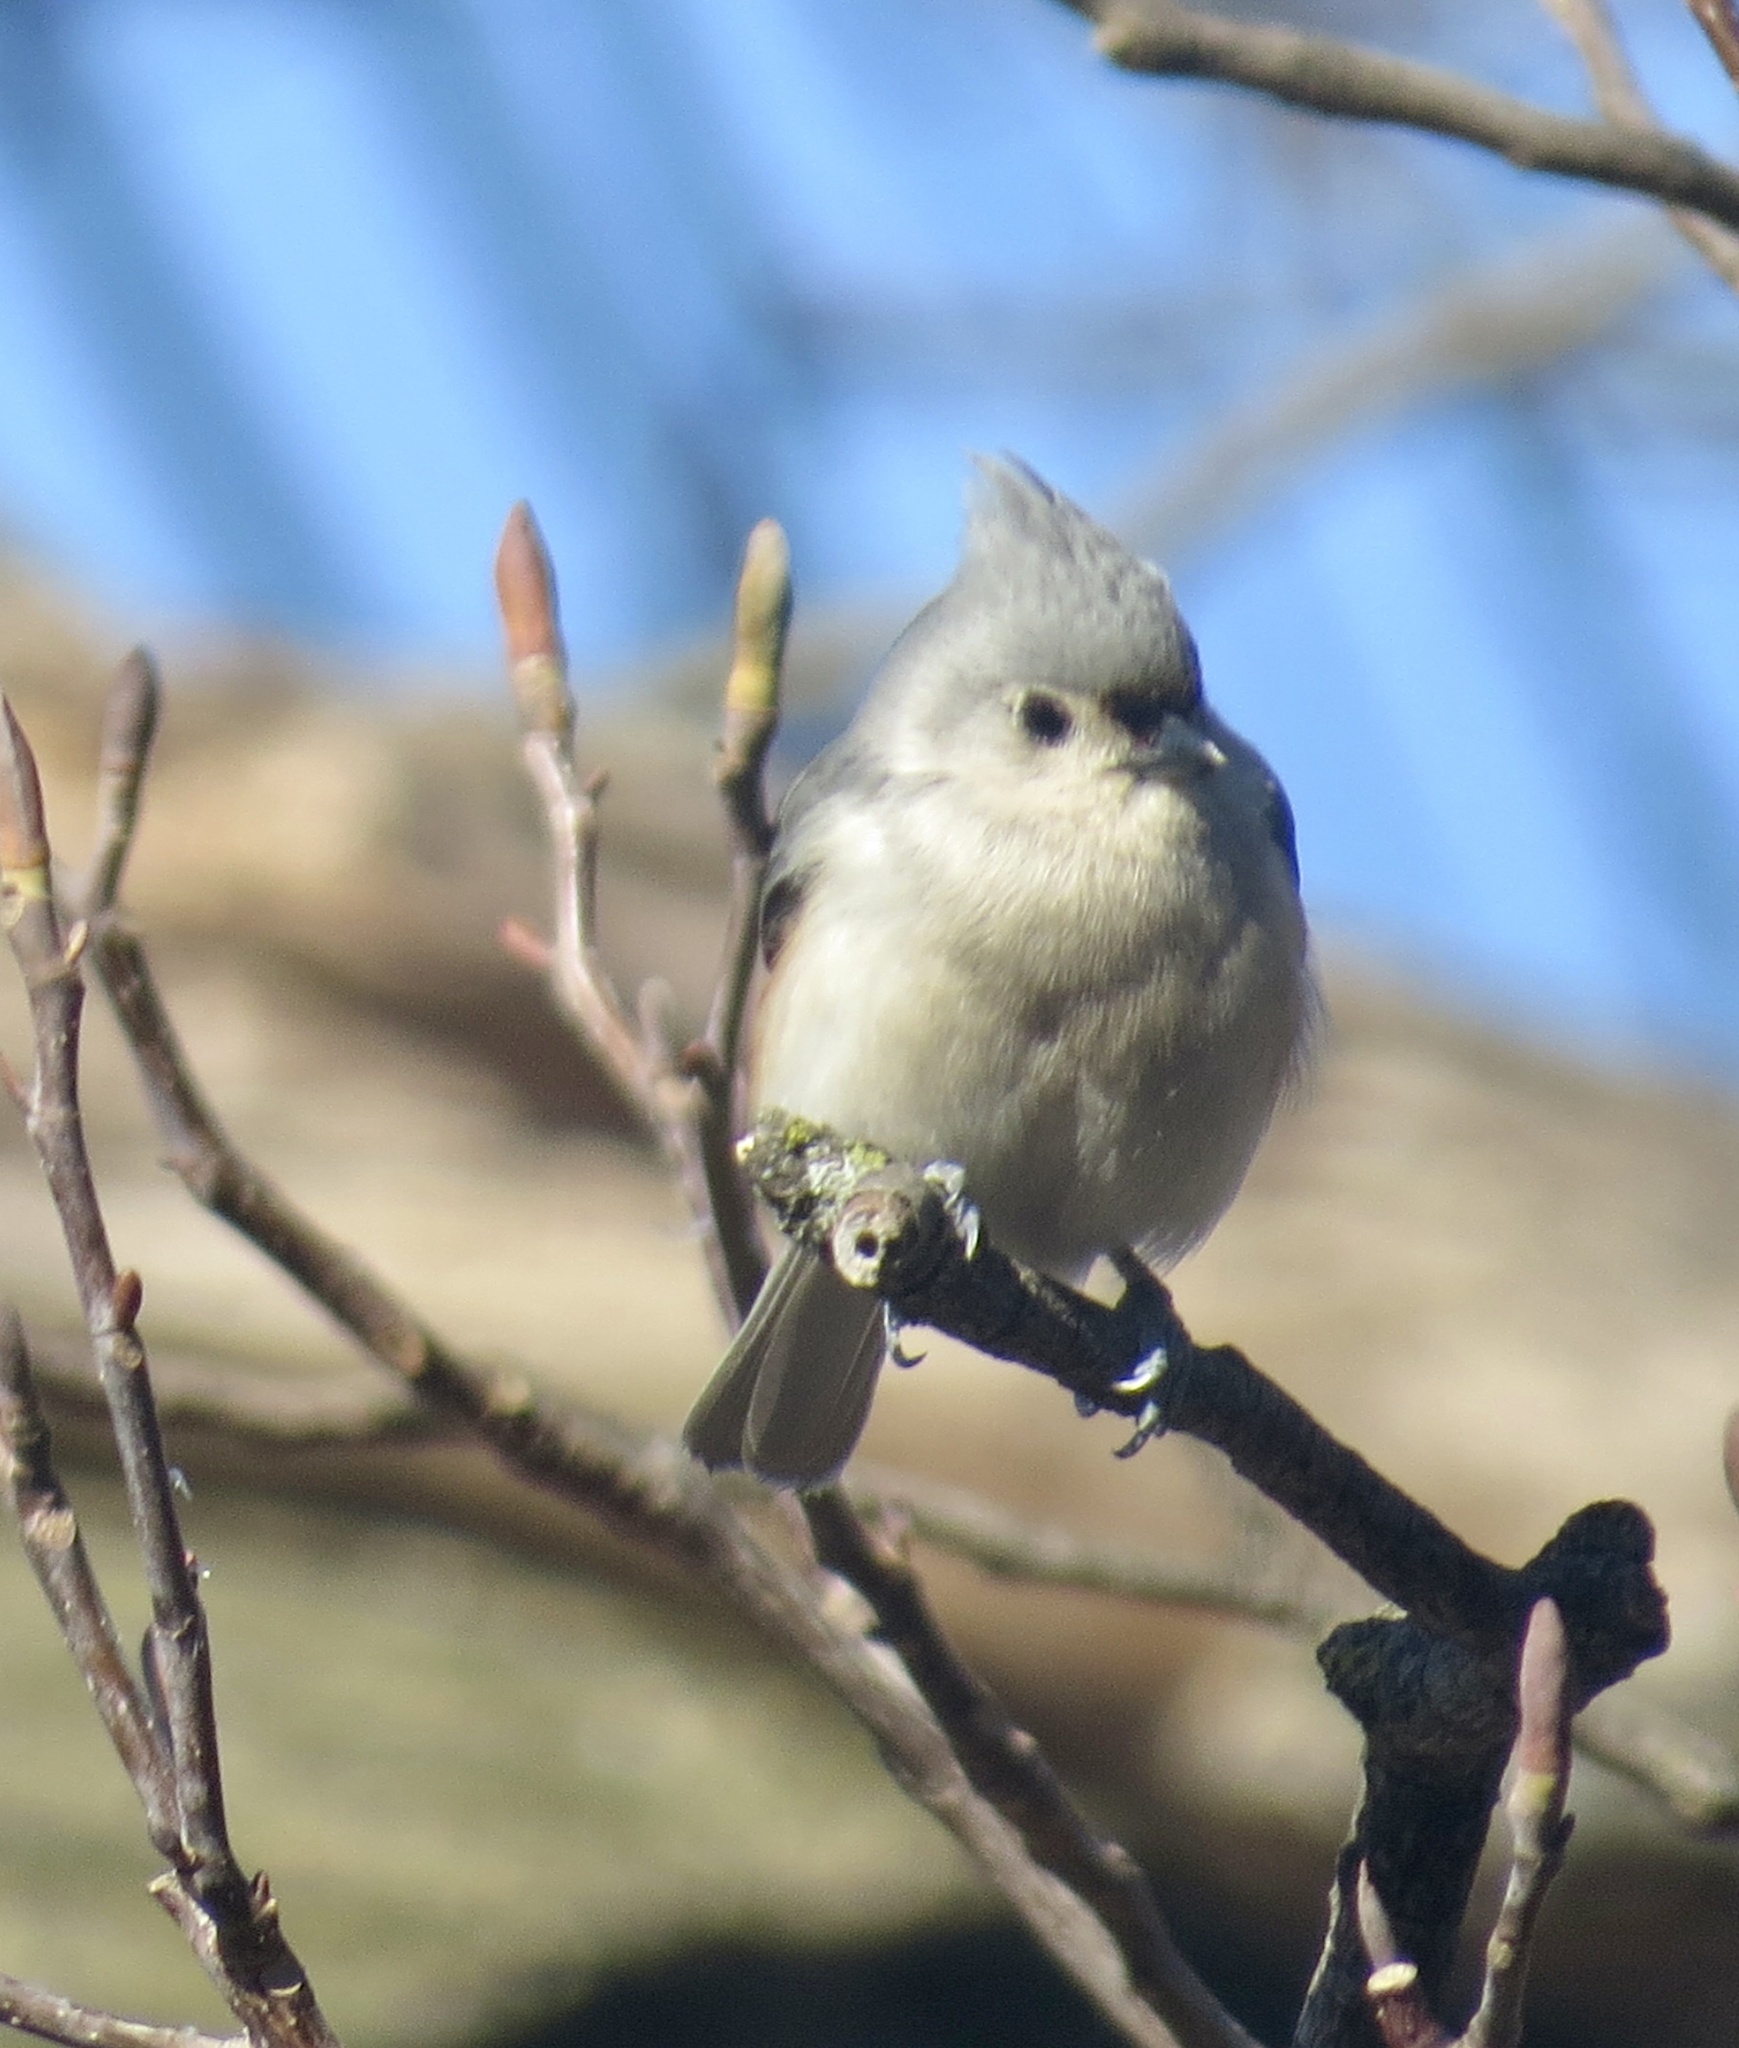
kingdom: Animalia
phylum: Chordata
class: Aves
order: Passeriformes
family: Paridae
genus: Baeolophus
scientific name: Baeolophus bicolor
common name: Tufted titmouse
